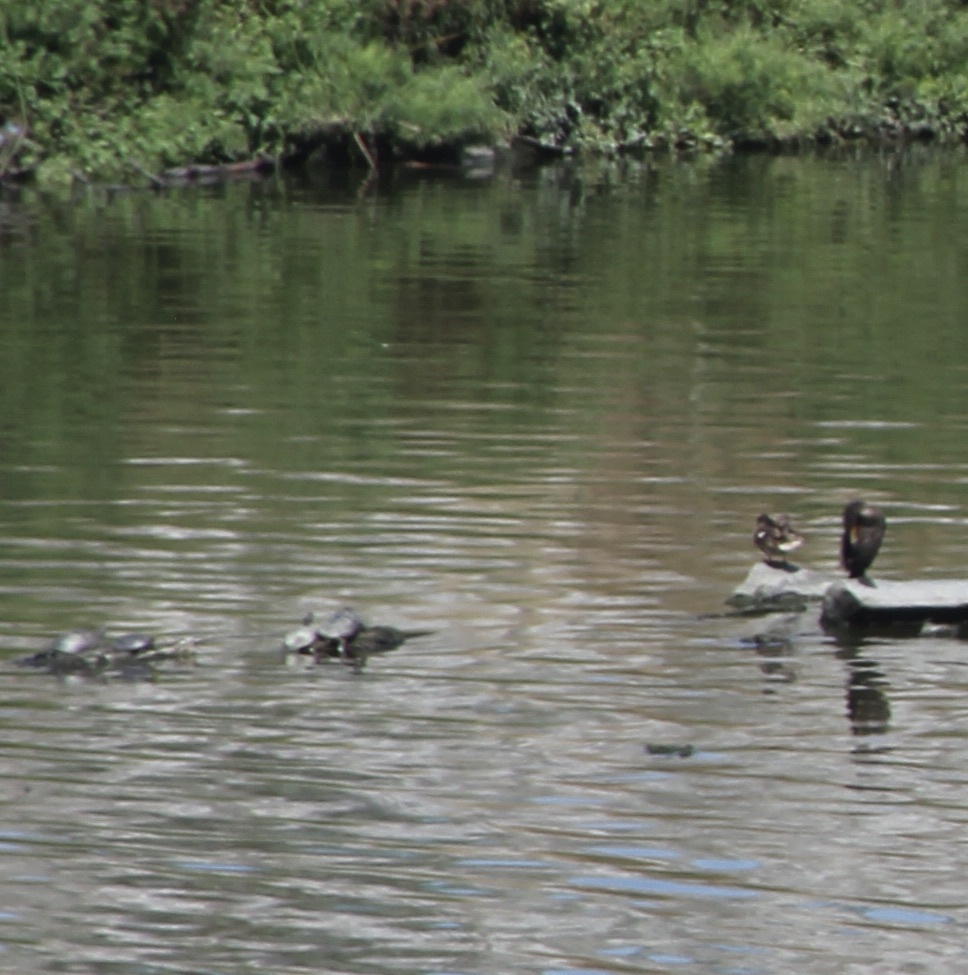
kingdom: Animalia
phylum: Chordata
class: Testudines
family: Emydidae
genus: Trachemys
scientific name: Trachemys scripta
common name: Slider
